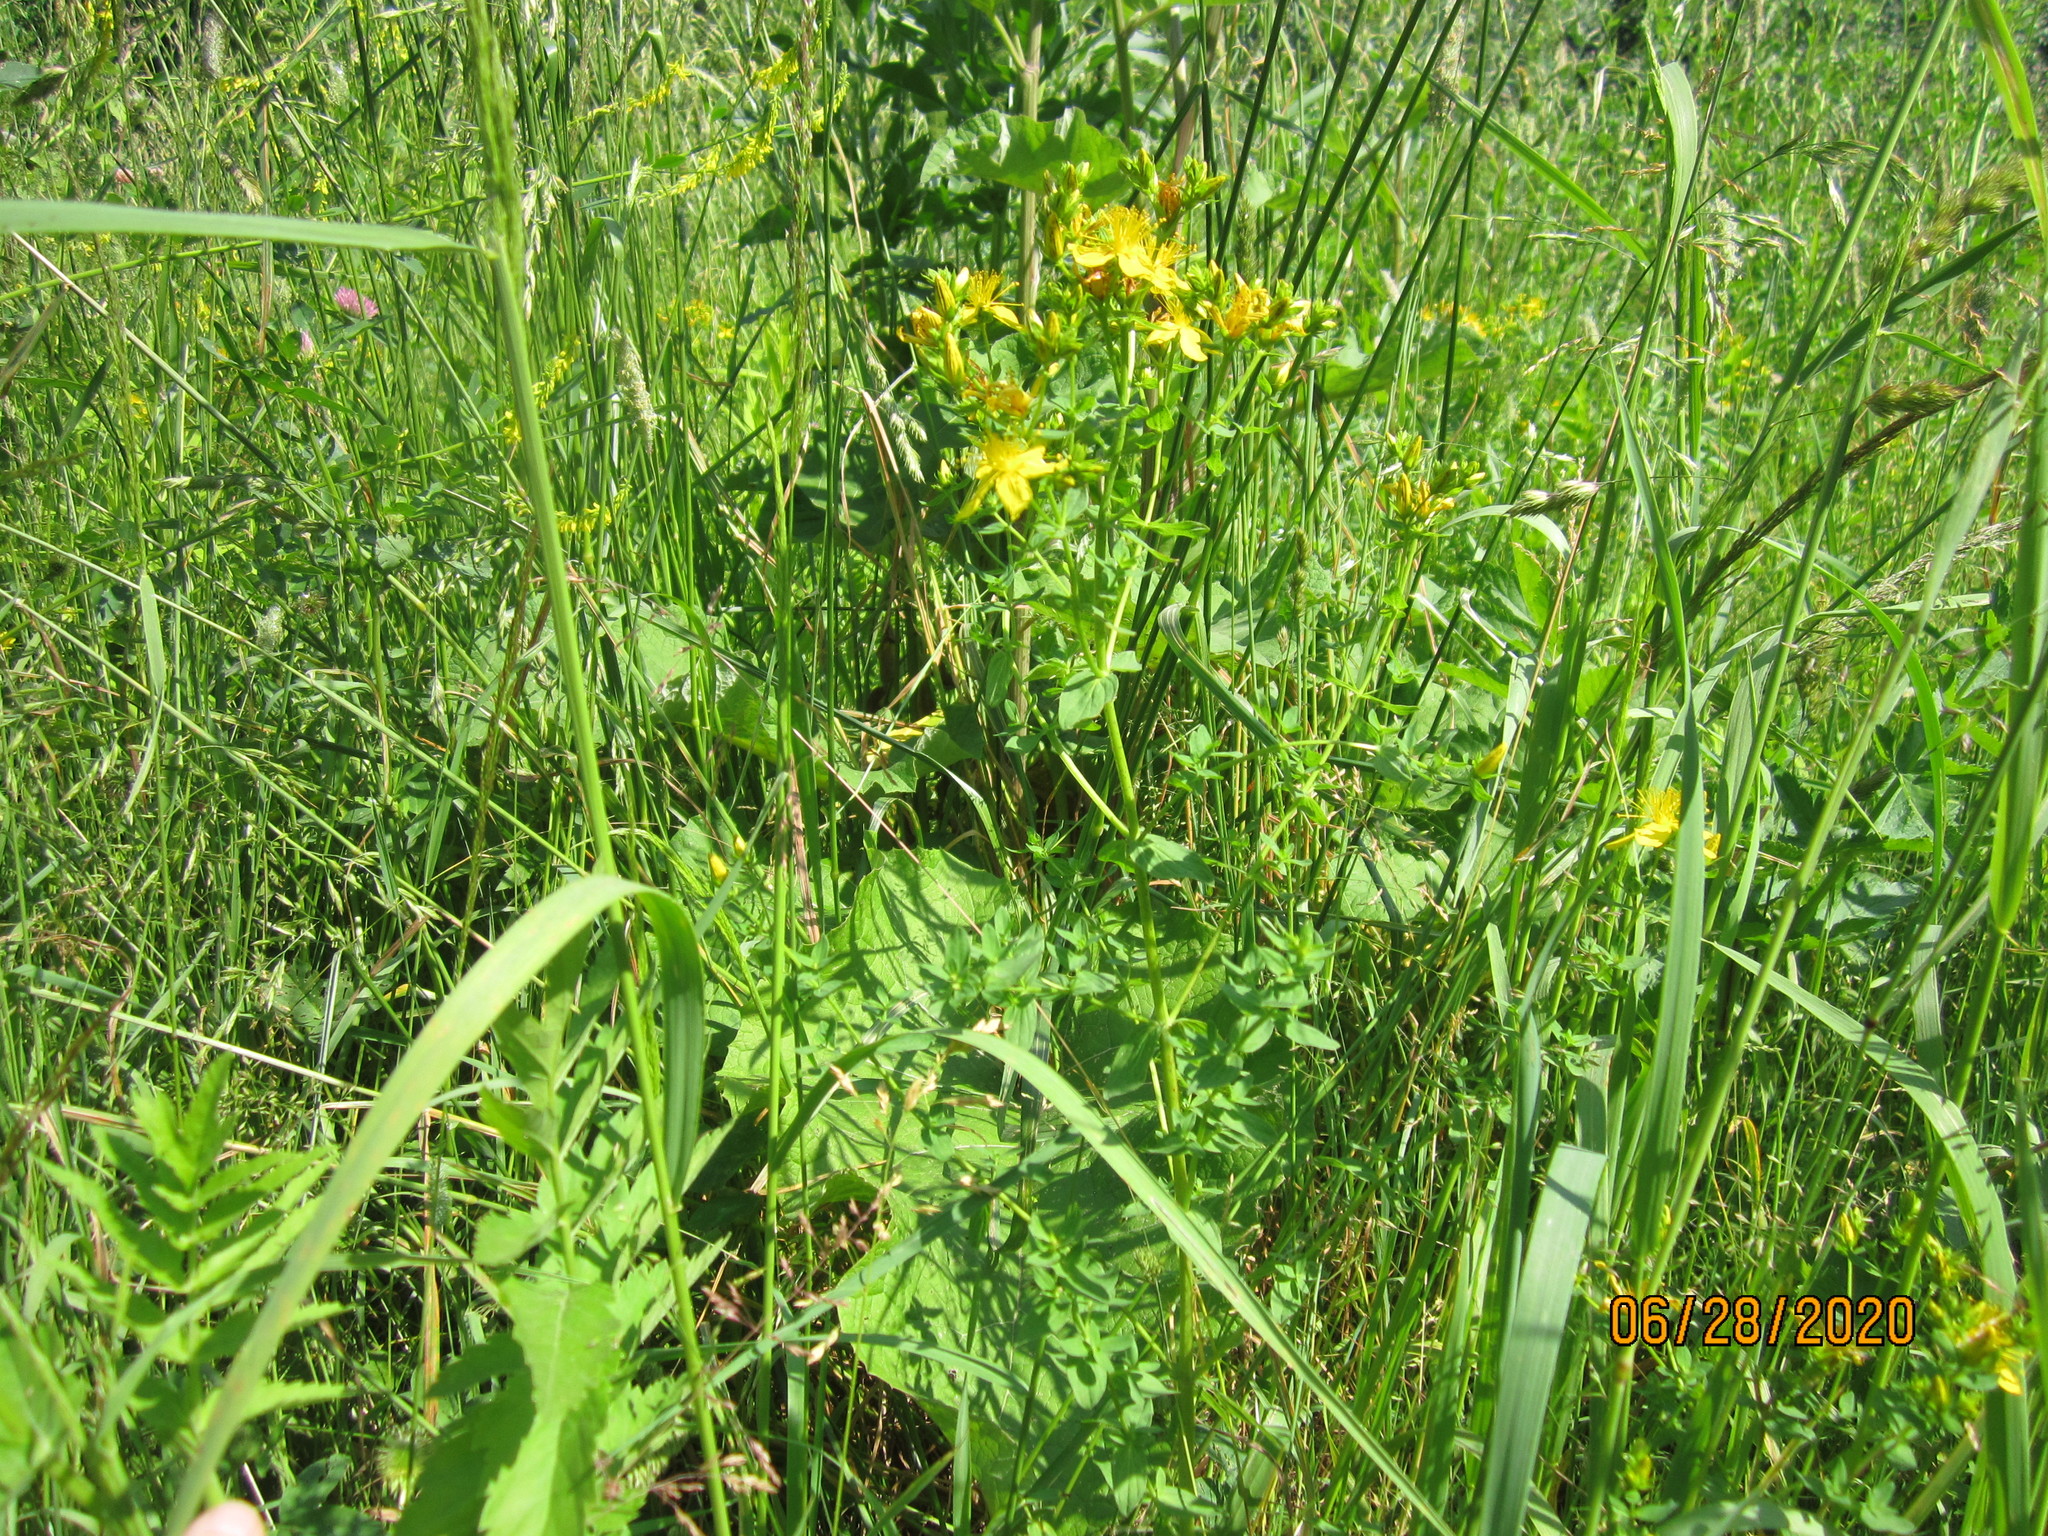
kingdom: Plantae
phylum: Tracheophyta
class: Magnoliopsida
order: Malpighiales
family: Hypericaceae
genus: Hypericum
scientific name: Hypericum perforatum
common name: Common st. johnswort
